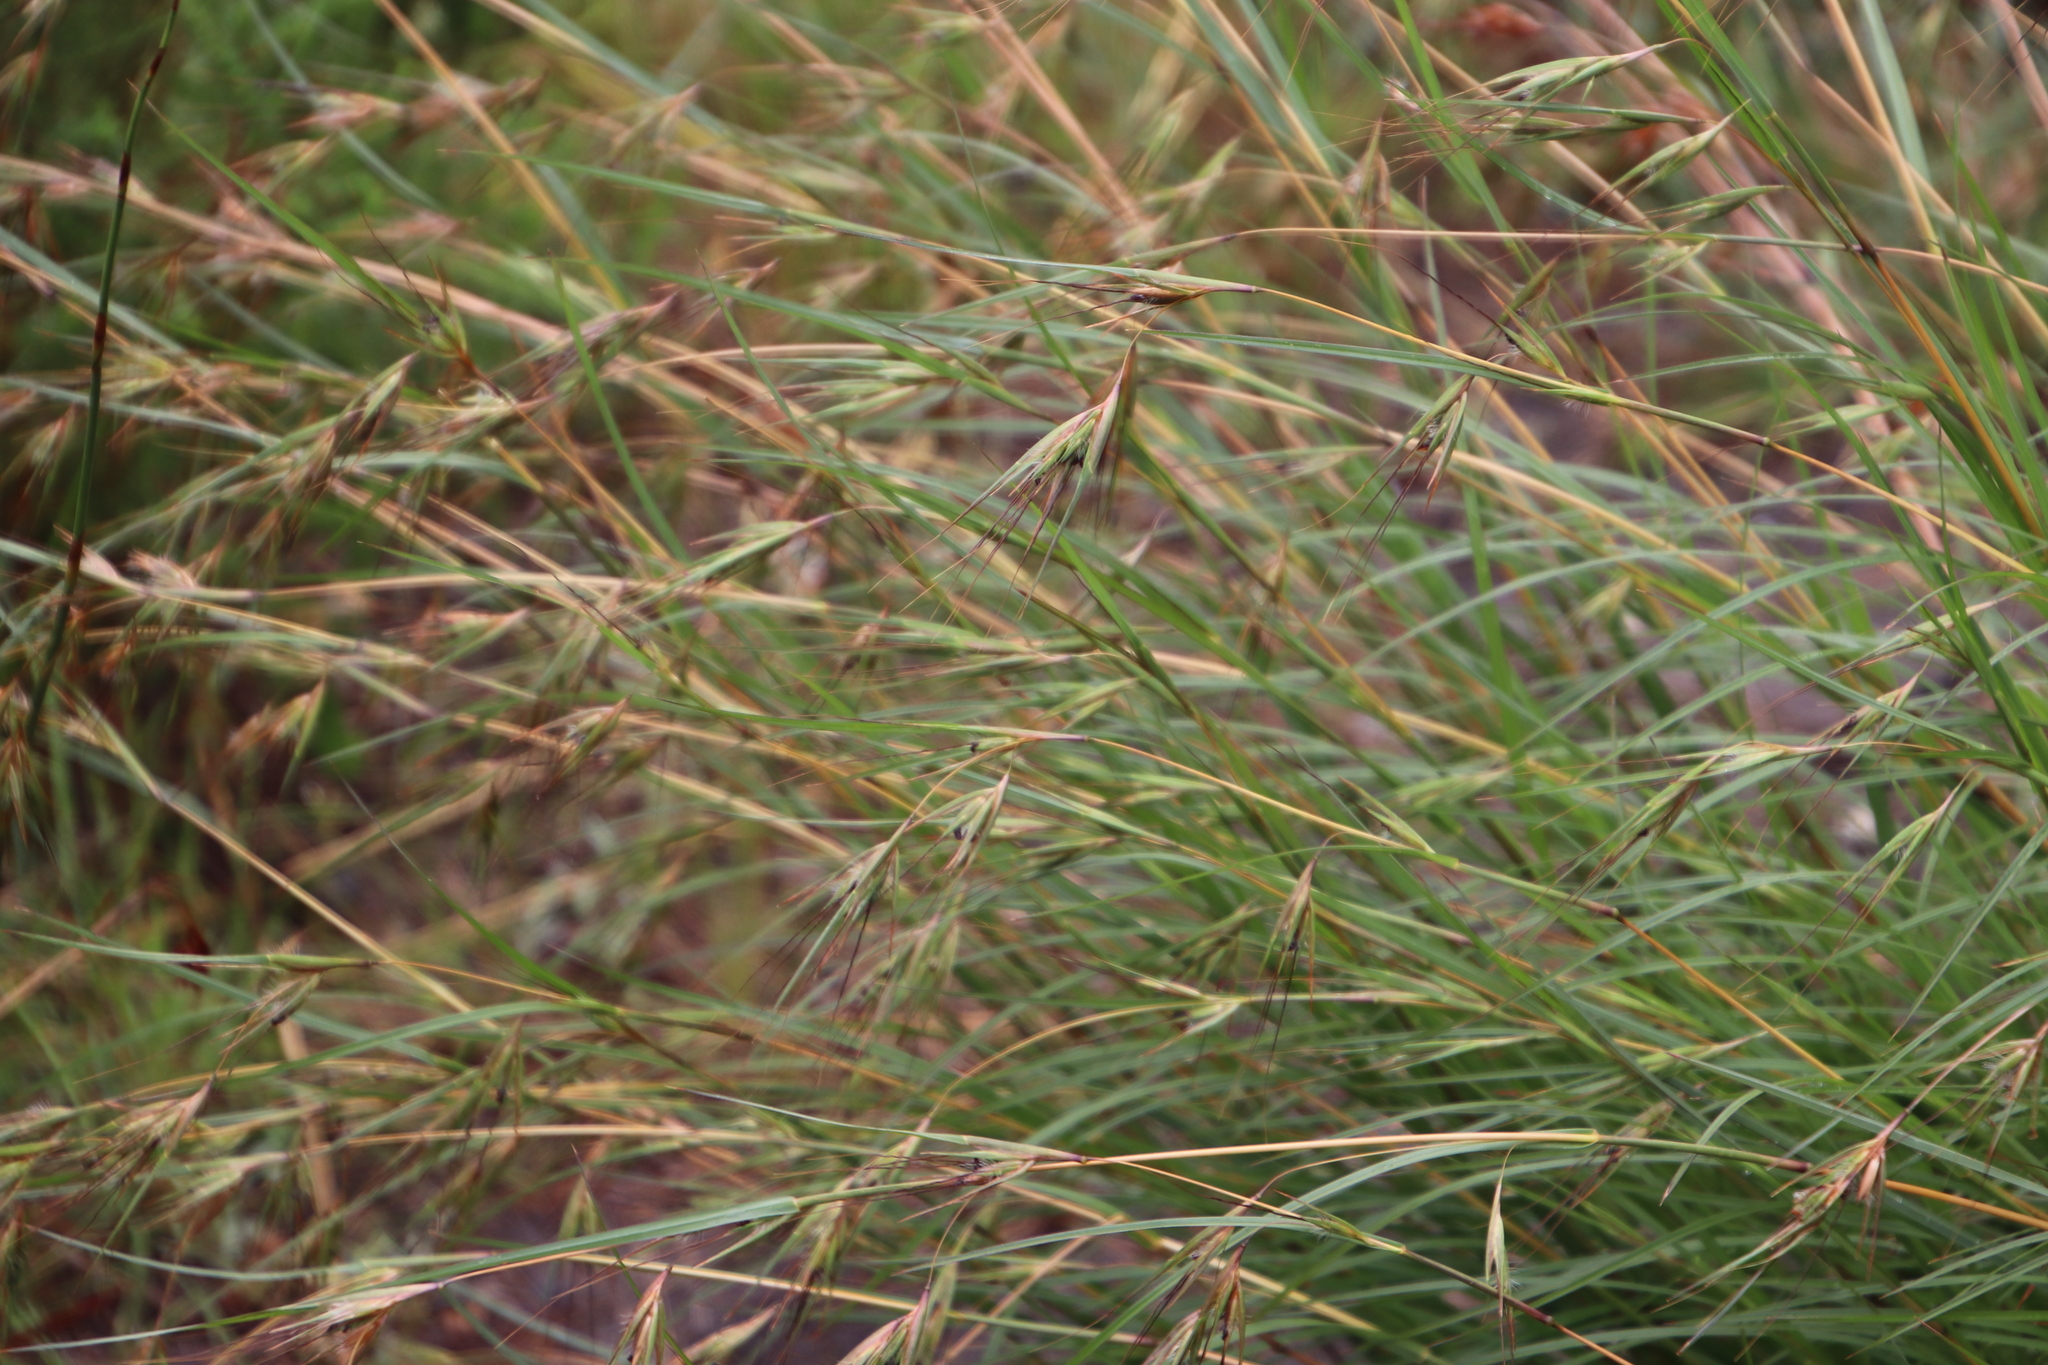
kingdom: Plantae
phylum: Tracheophyta
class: Liliopsida
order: Poales
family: Poaceae
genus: Themeda
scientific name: Themeda triandra
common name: Kangaroo grass
